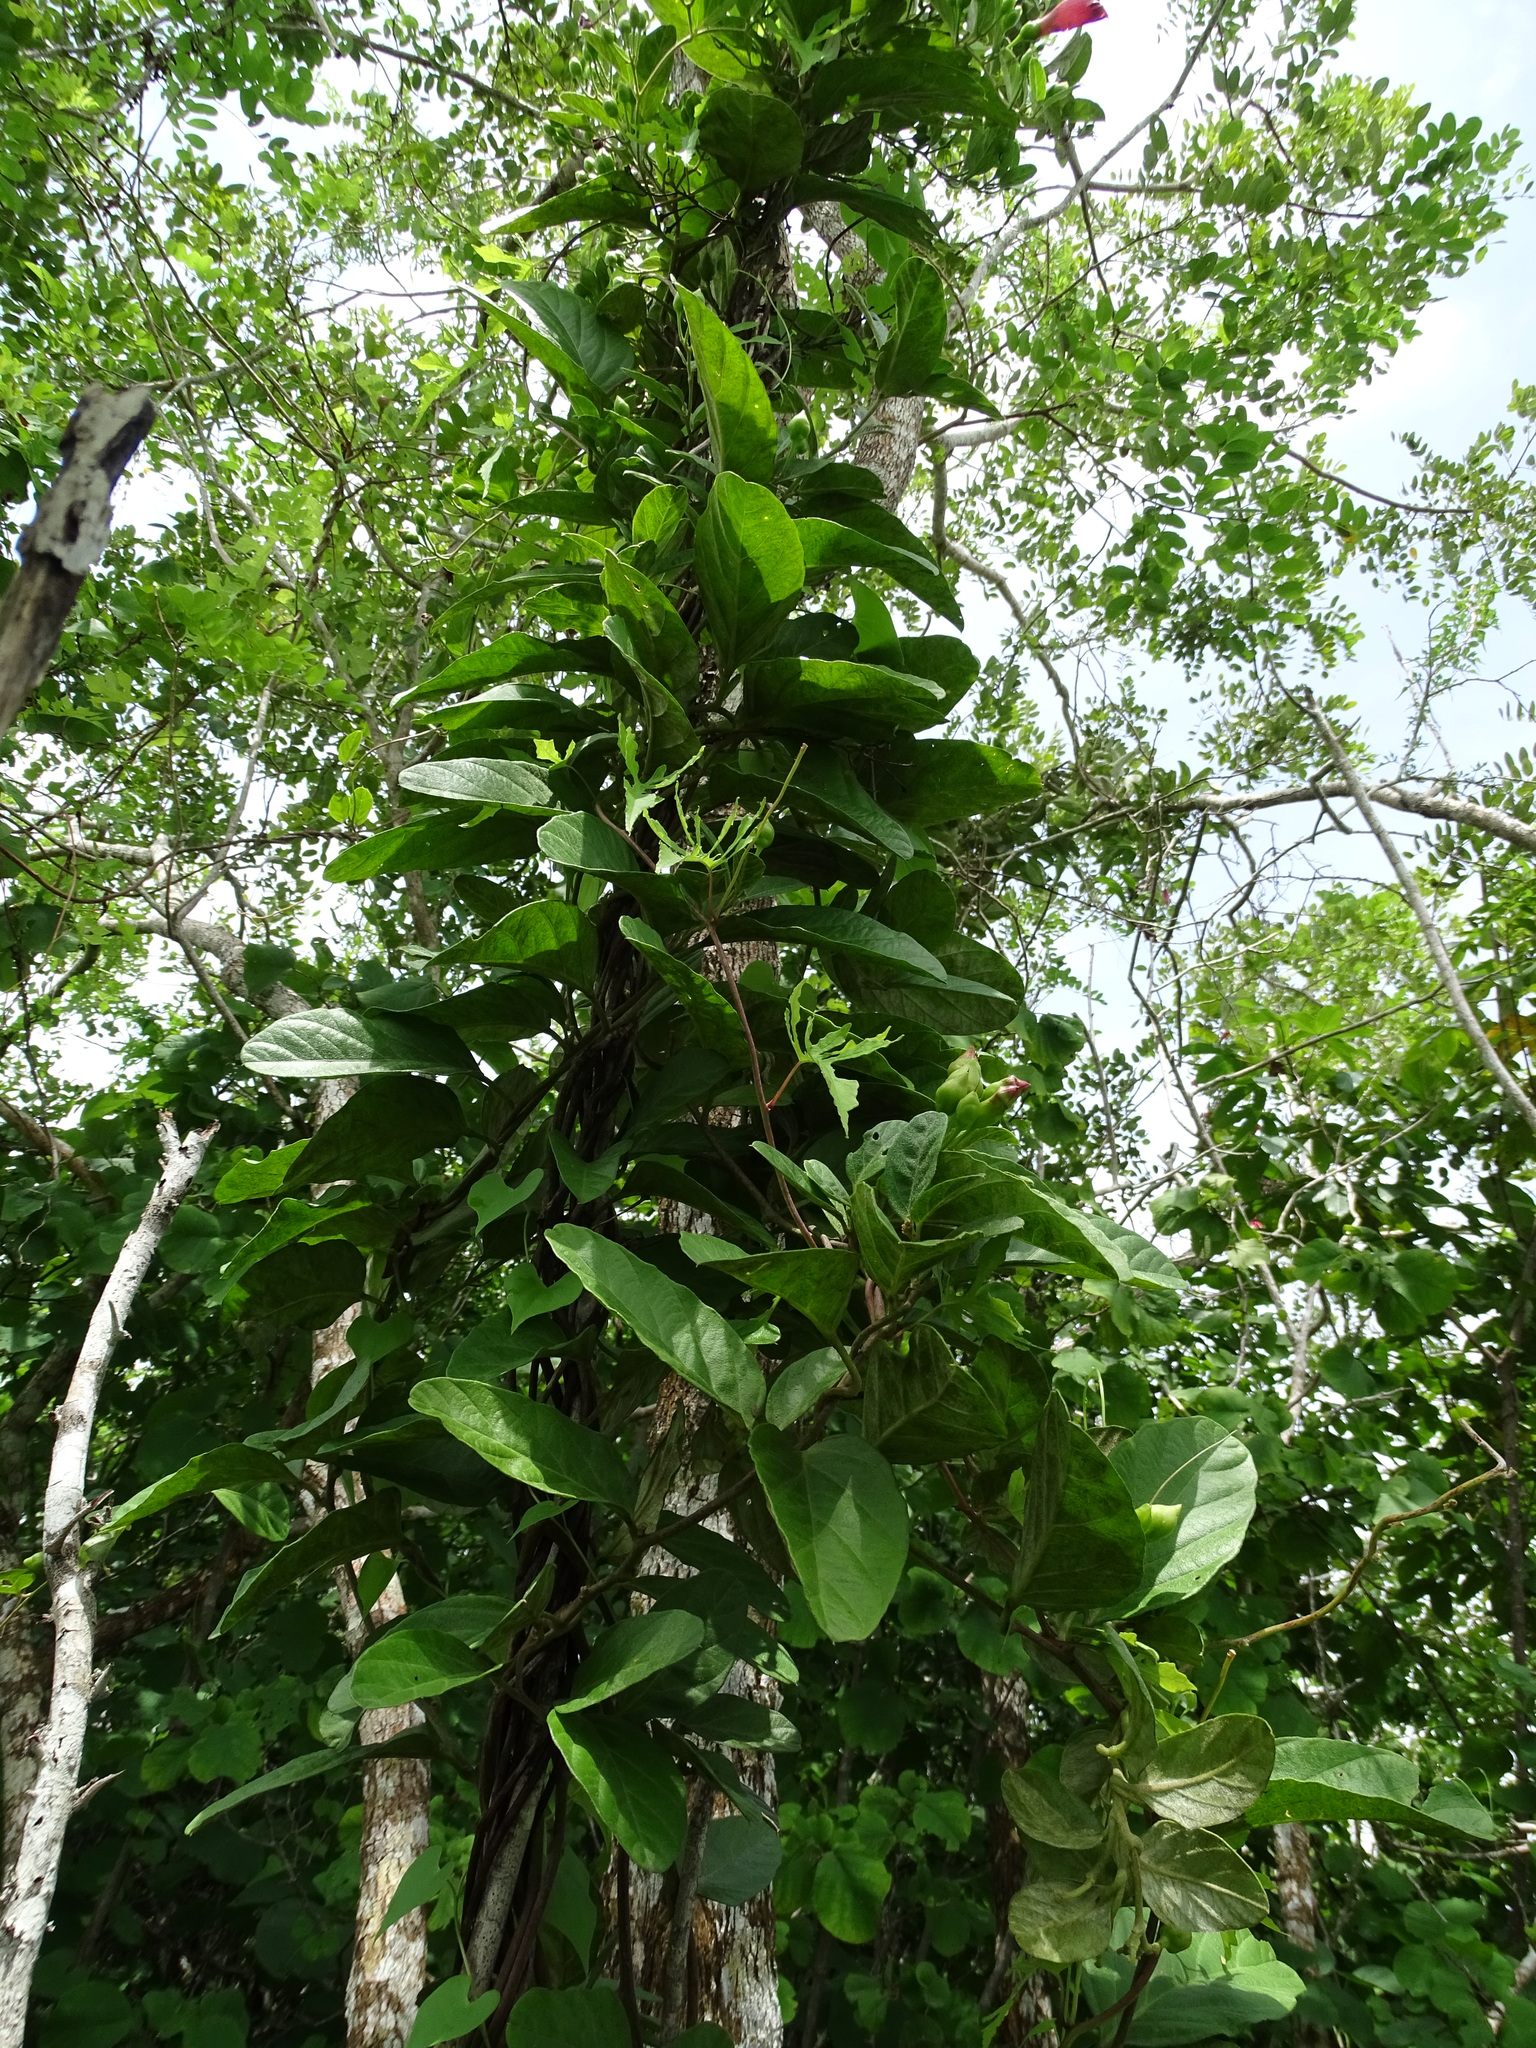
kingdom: Plantae
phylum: Tracheophyta
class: Magnoliopsida
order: Solanales
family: Convolvulaceae
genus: Ipomoea
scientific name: Ipomoea steerei
